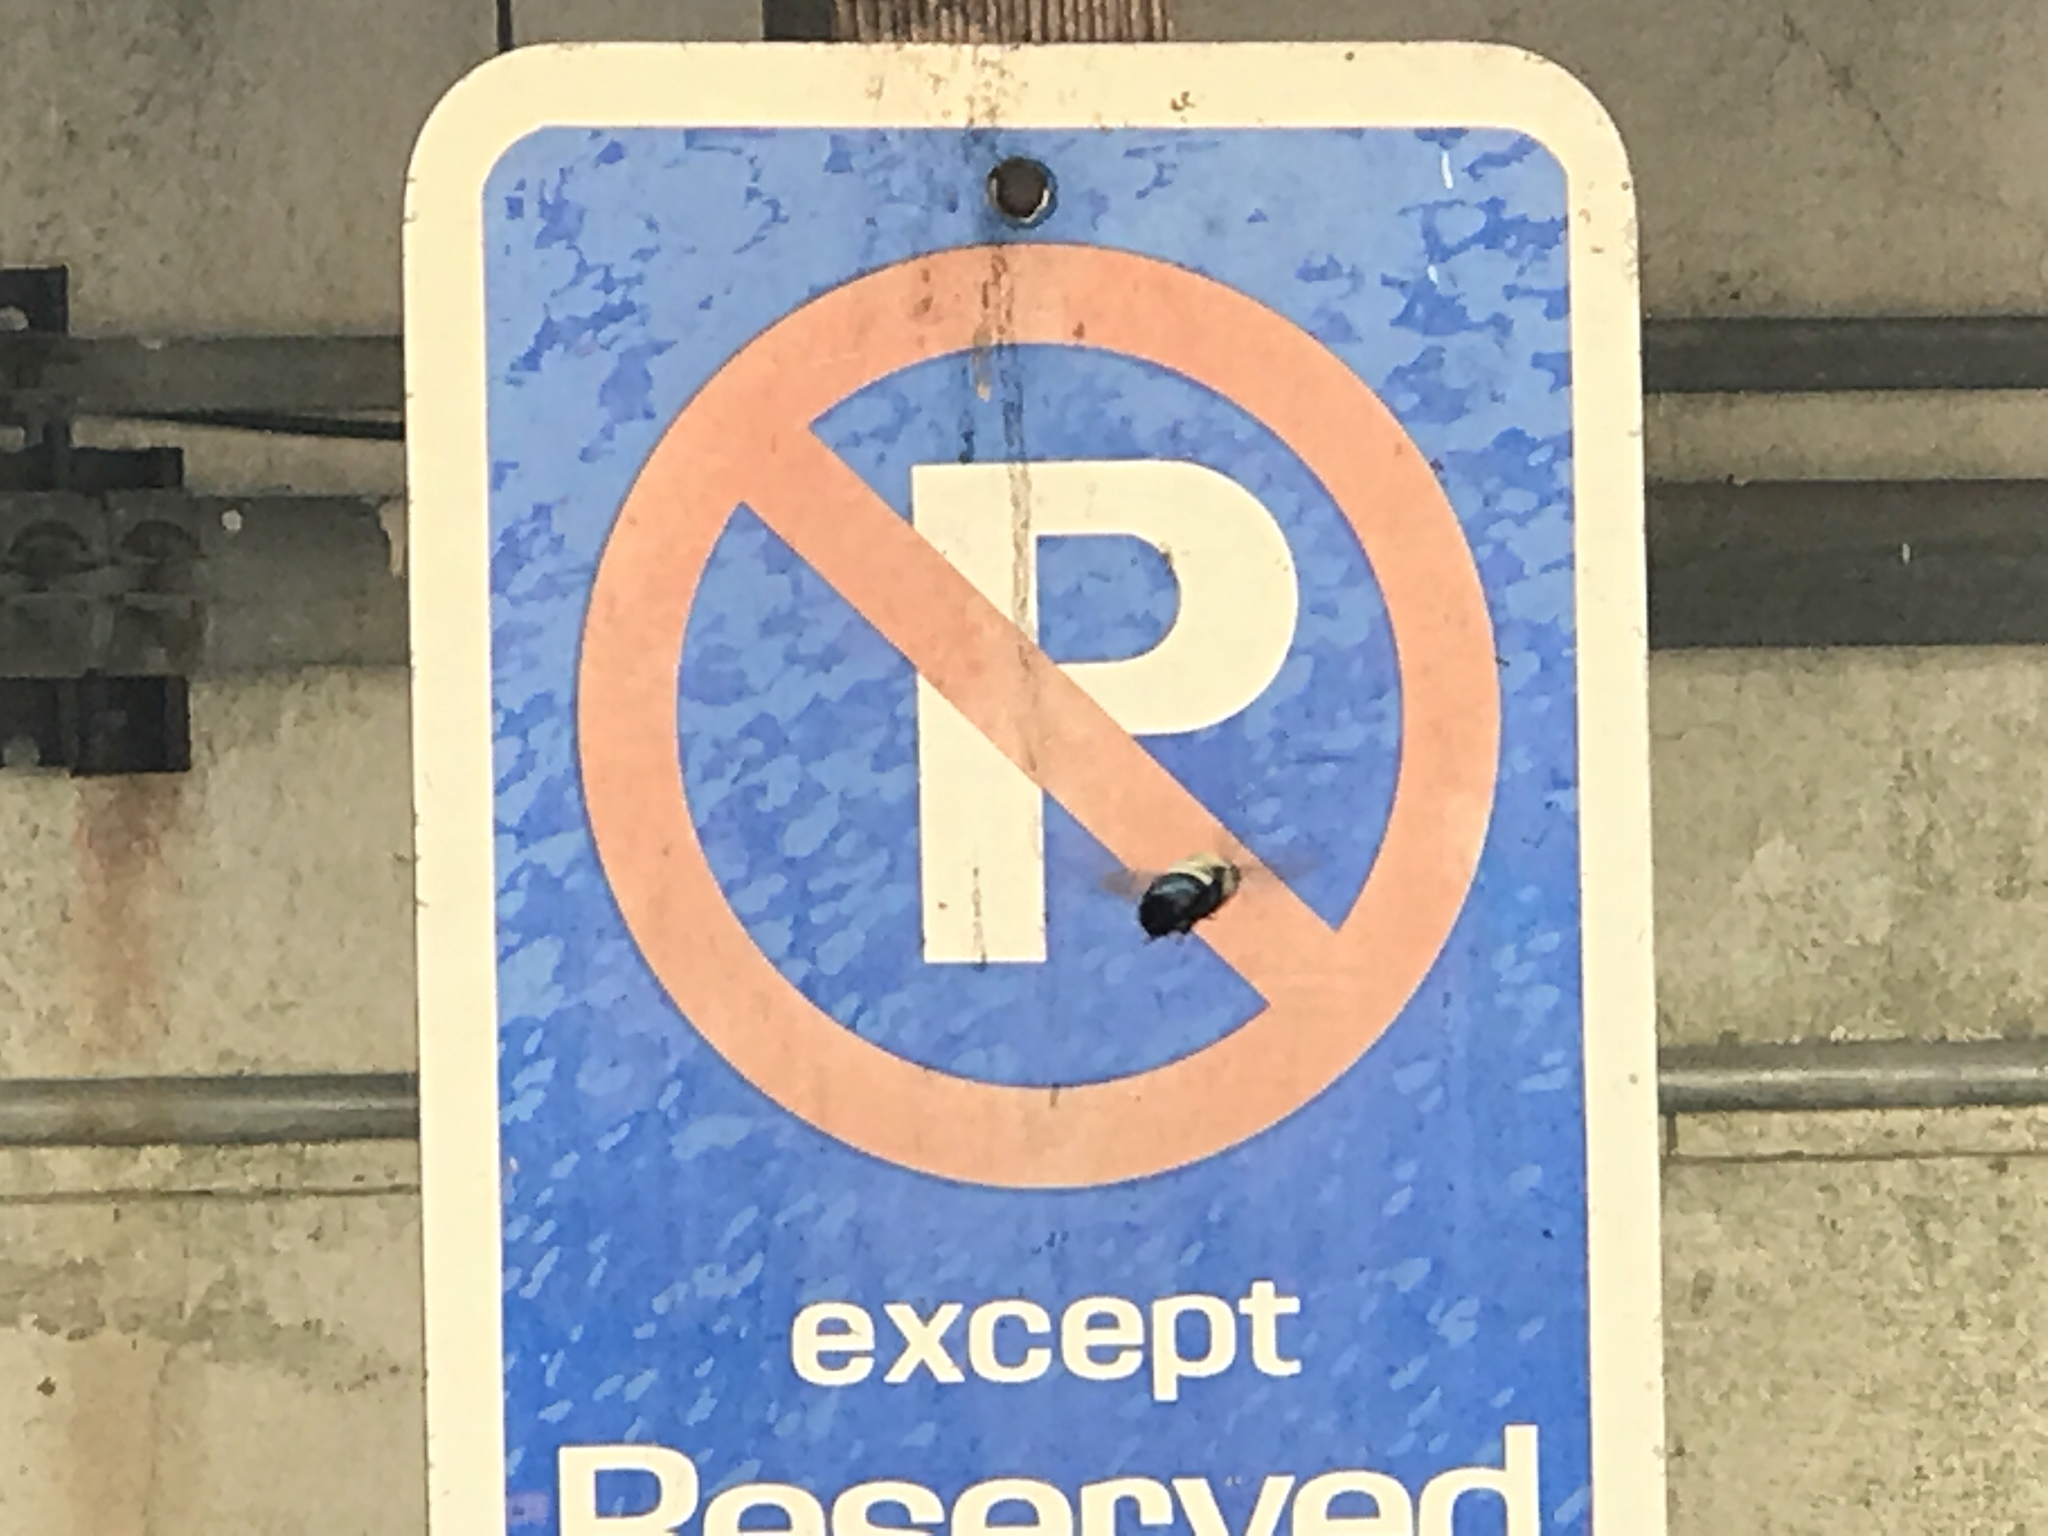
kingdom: Animalia
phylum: Arthropoda
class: Insecta
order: Hymenoptera
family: Apidae
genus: Xylocopa
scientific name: Xylocopa virginica
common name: Carpenter bee
